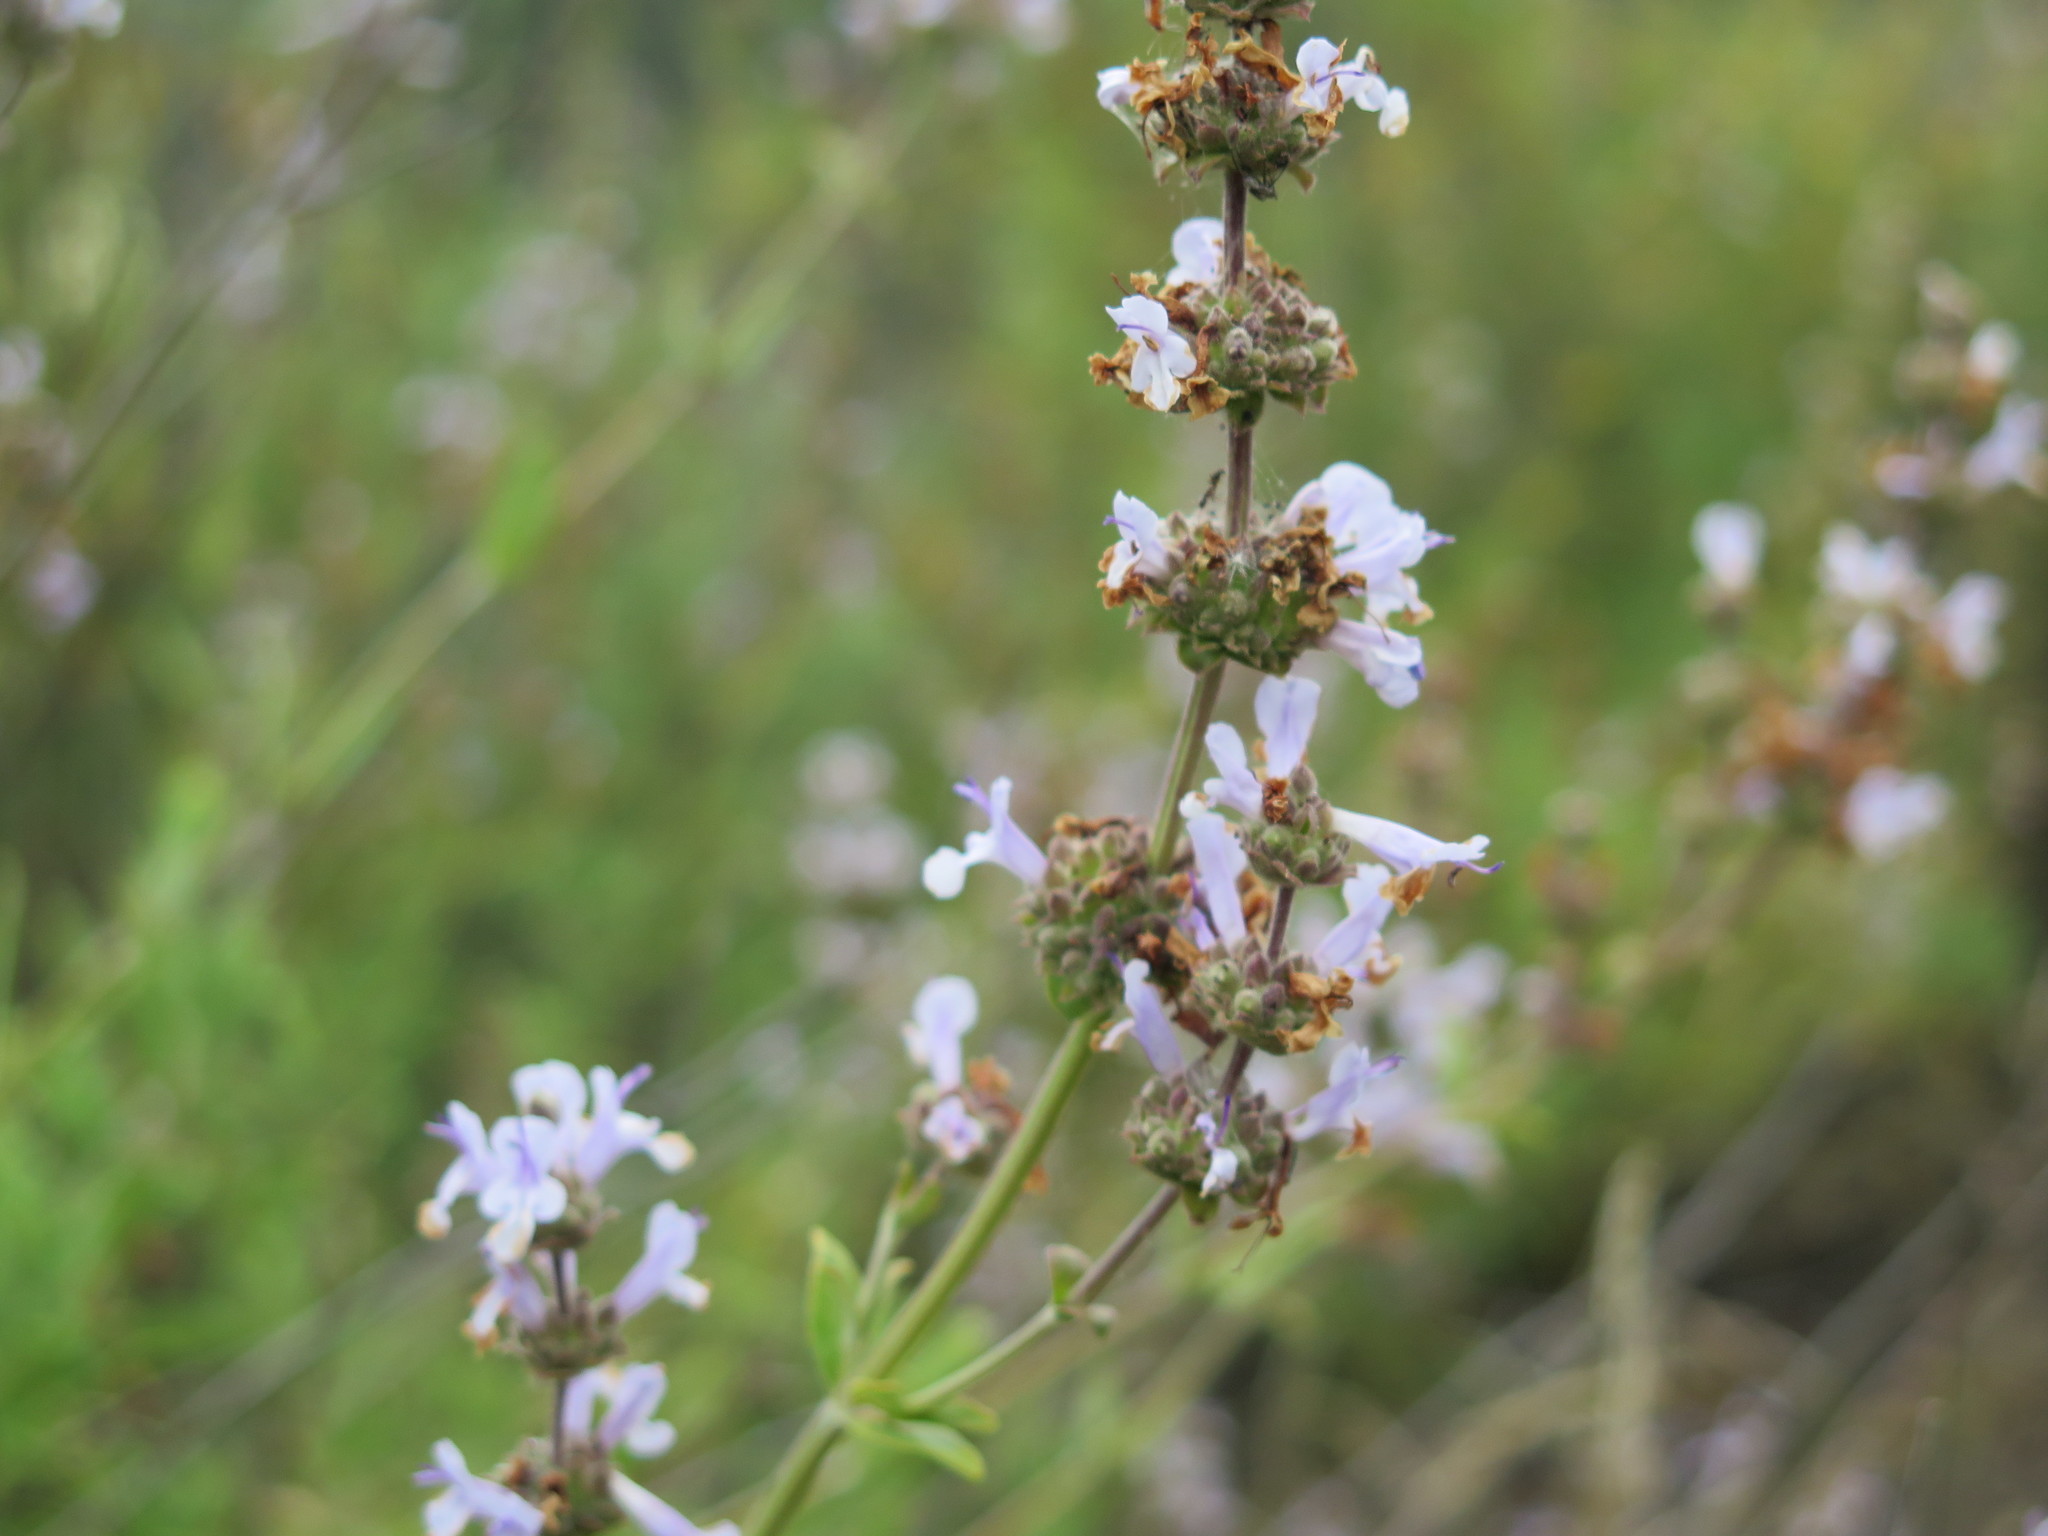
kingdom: Plantae
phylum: Tracheophyta
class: Magnoliopsida
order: Lamiales
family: Lamiaceae
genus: Salvia
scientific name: Salvia mellifera
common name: Black sage
